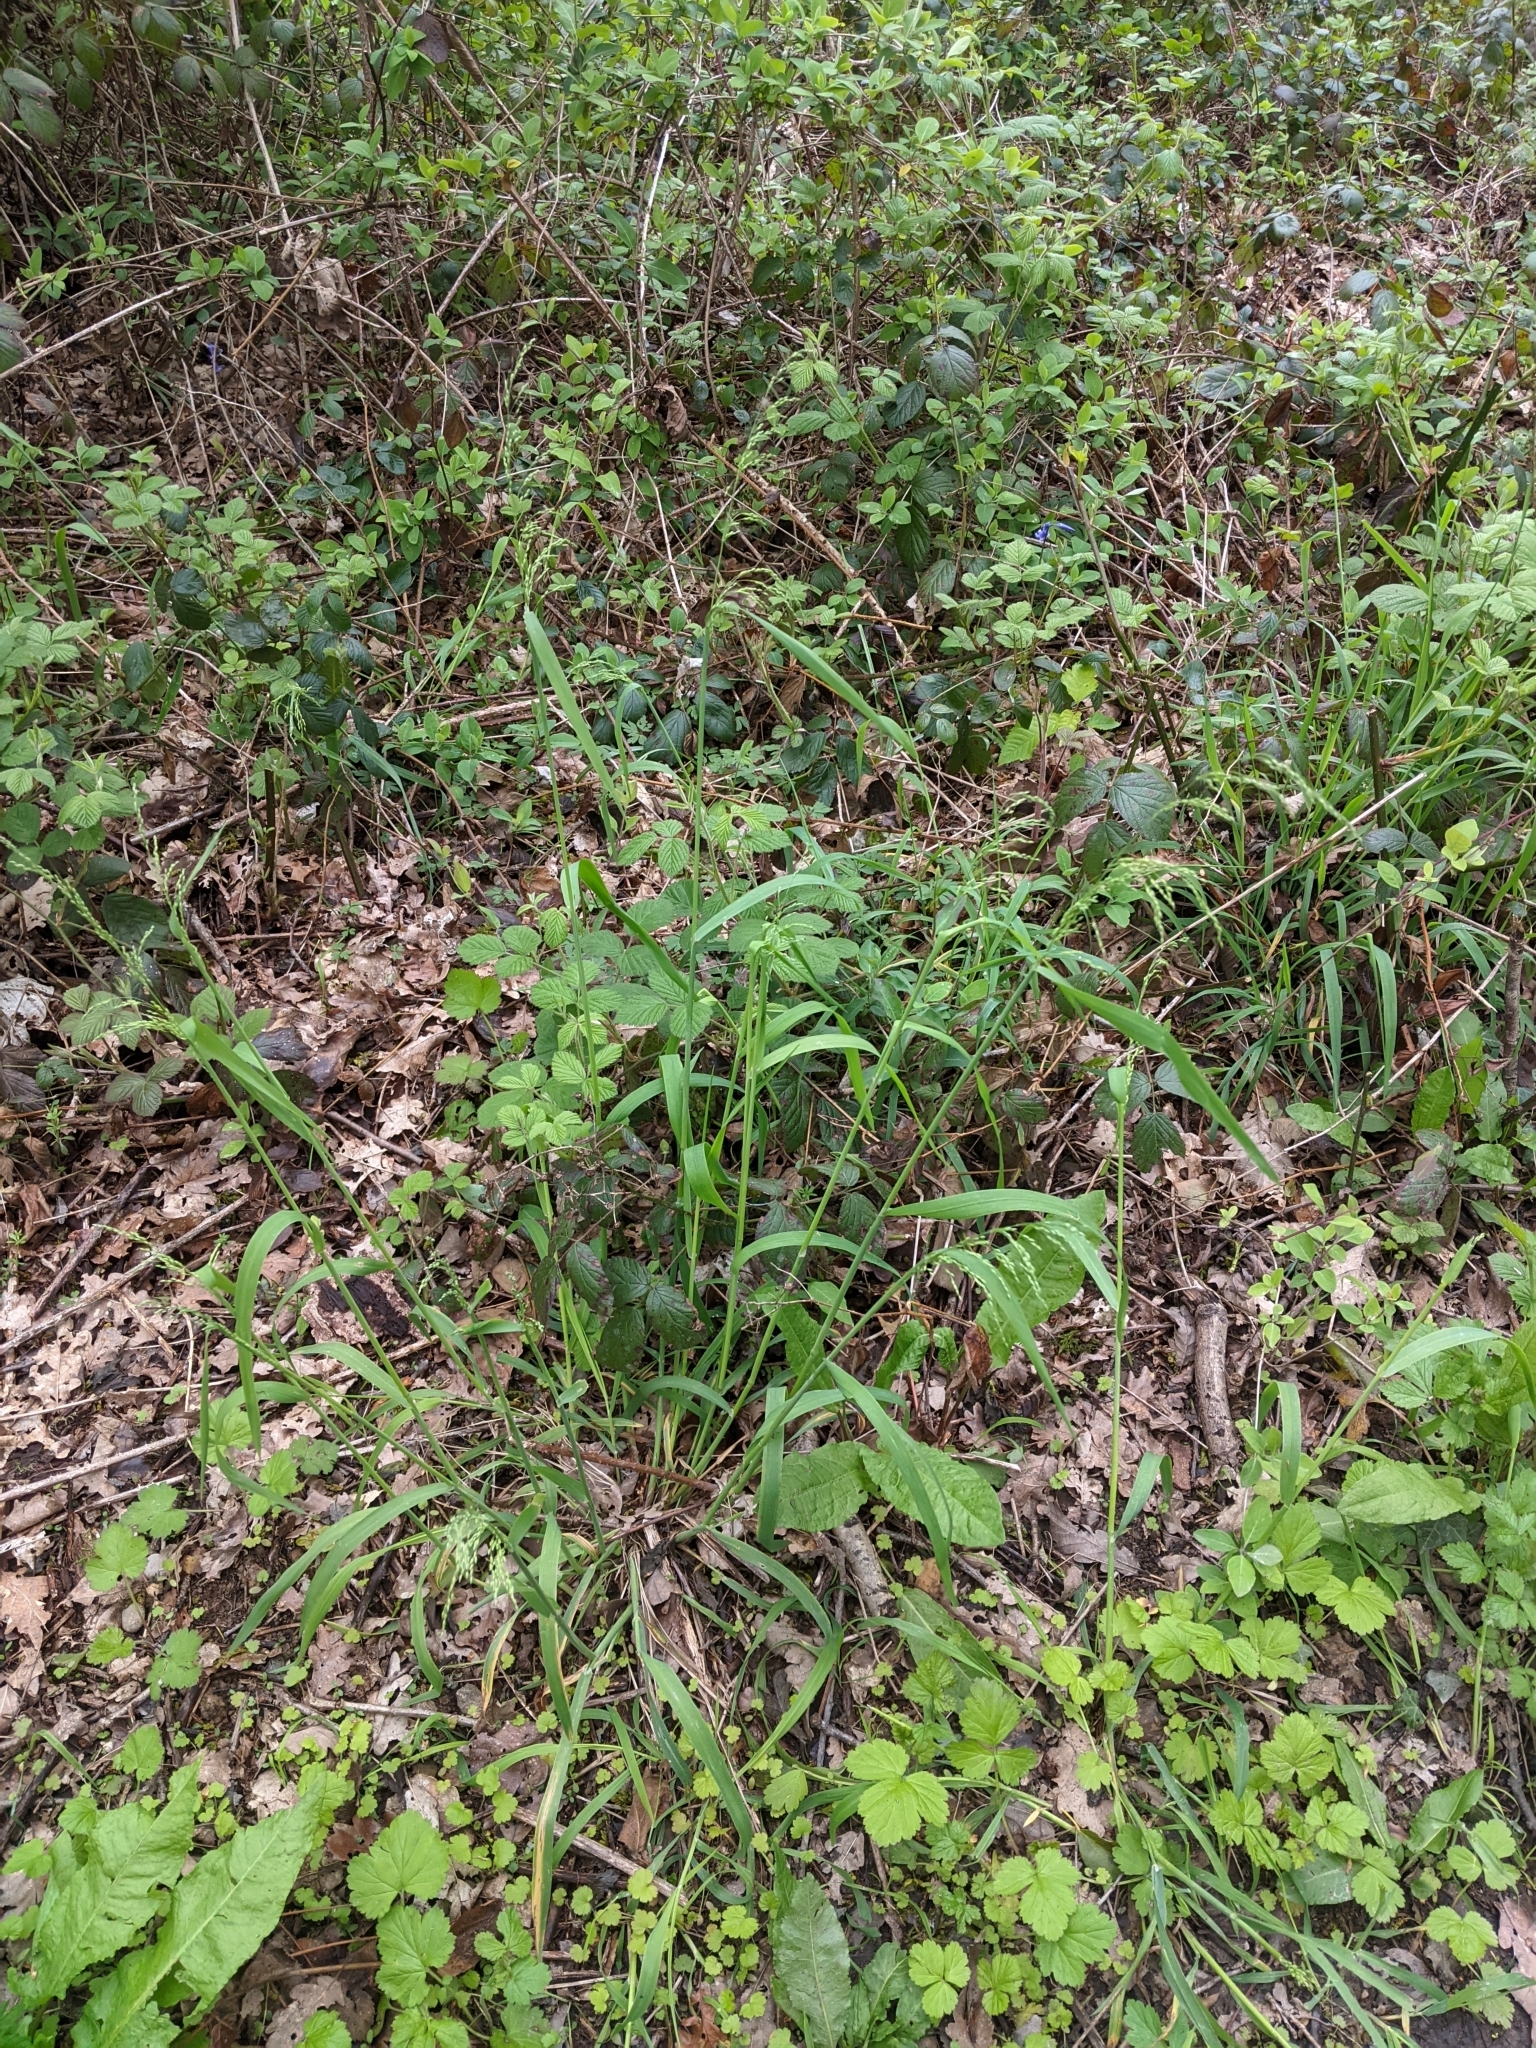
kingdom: Plantae
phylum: Tracheophyta
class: Liliopsida
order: Poales
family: Poaceae
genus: Milium
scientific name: Milium effusum
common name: Wood millet
